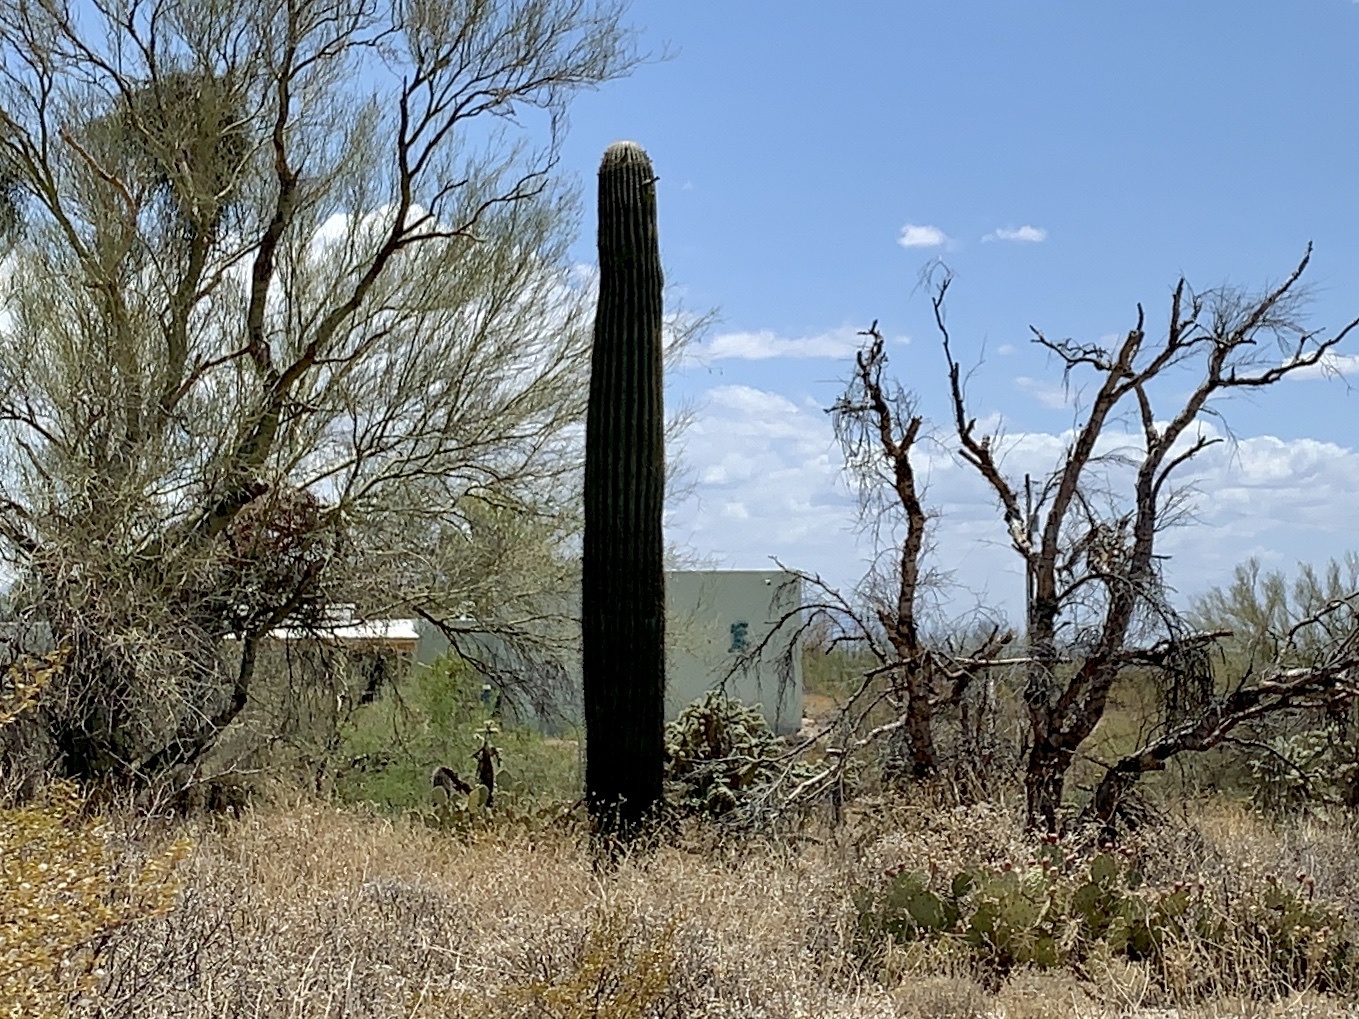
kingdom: Plantae
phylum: Tracheophyta
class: Magnoliopsida
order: Caryophyllales
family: Cactaceae
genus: Carnegiea
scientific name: Carnegiea gigantea
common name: Saguaro
